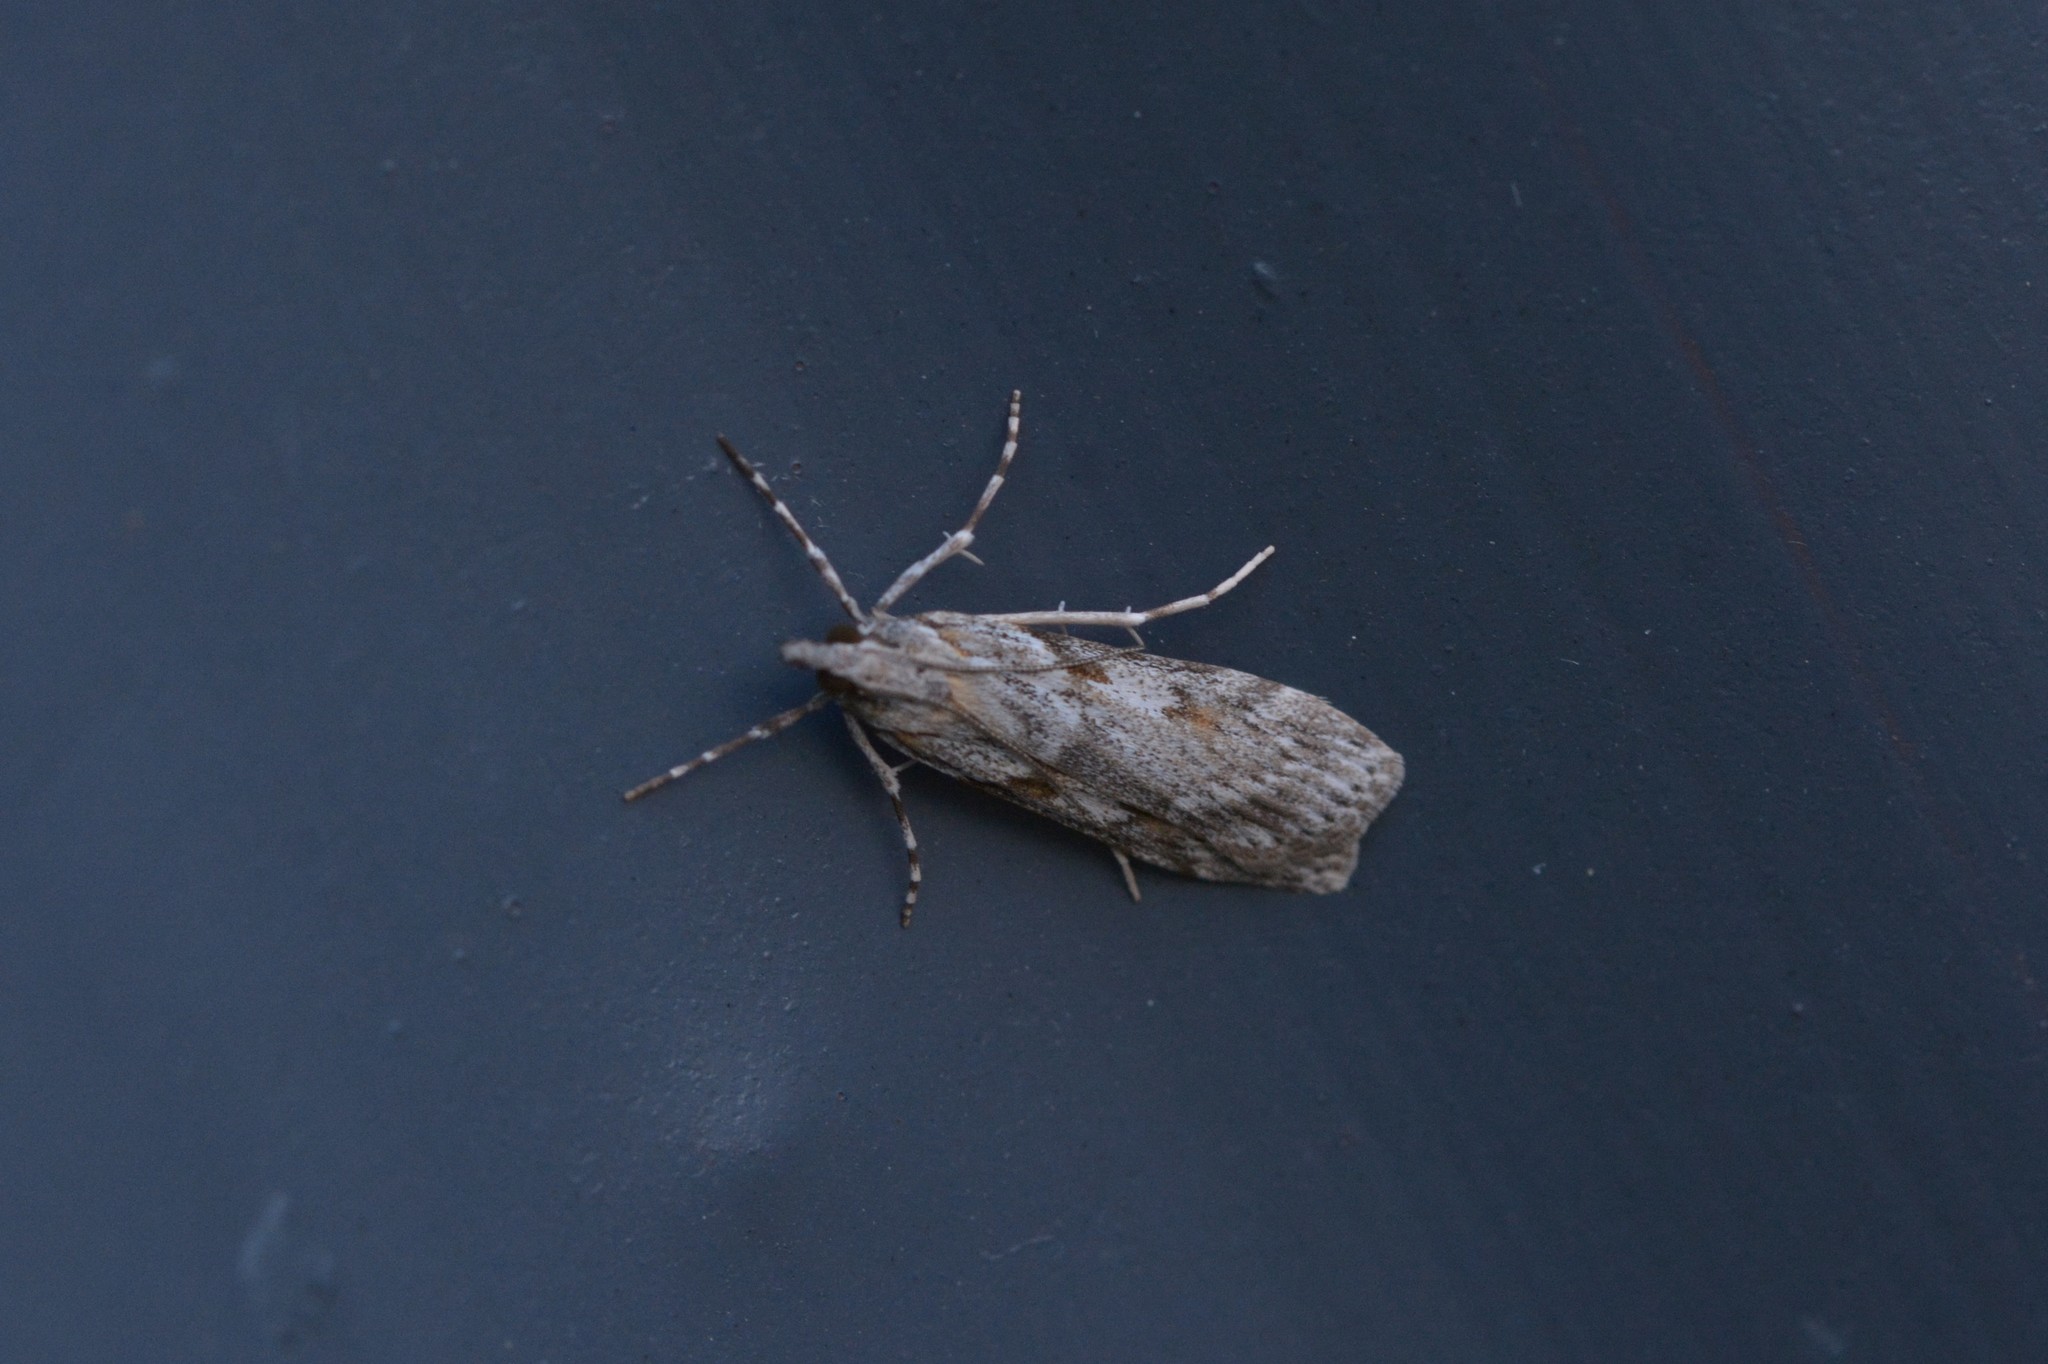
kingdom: Animalia
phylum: Arthropoda
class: Insecta
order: Lepidoptera
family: Crambidae
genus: Scoparia
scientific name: Scoparia halopis
